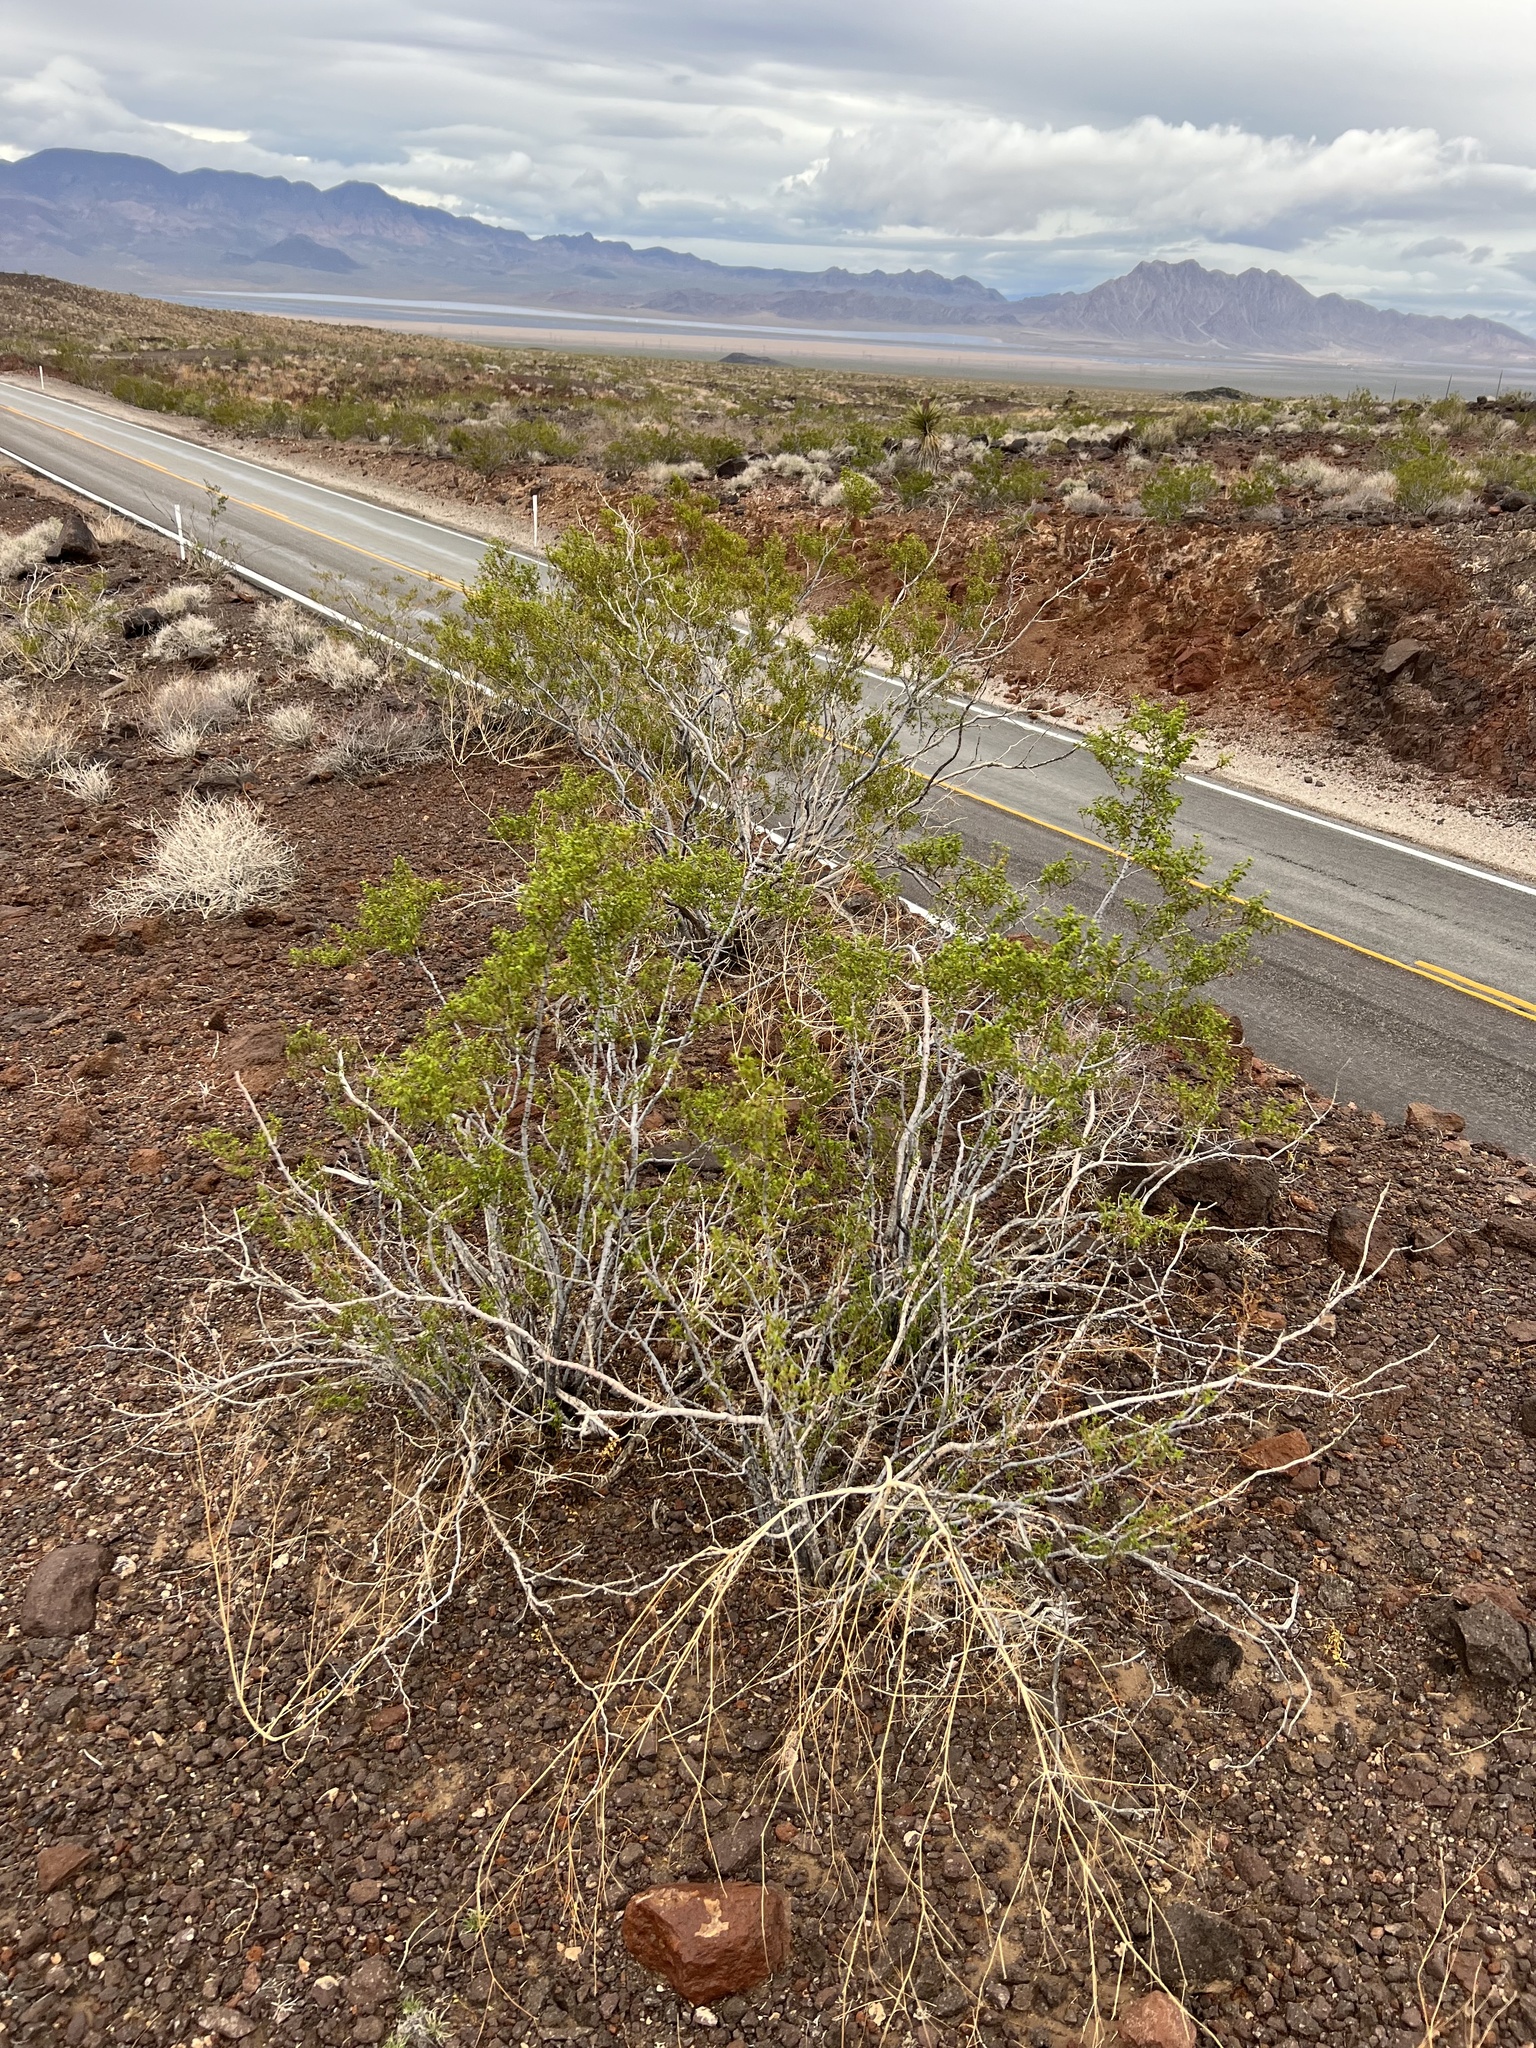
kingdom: Plantae
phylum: Tracheophyta
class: Magnoliopsida
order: Zygophyllales
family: Zygophyllaceae
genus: Larrea
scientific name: Larrea tridentata
